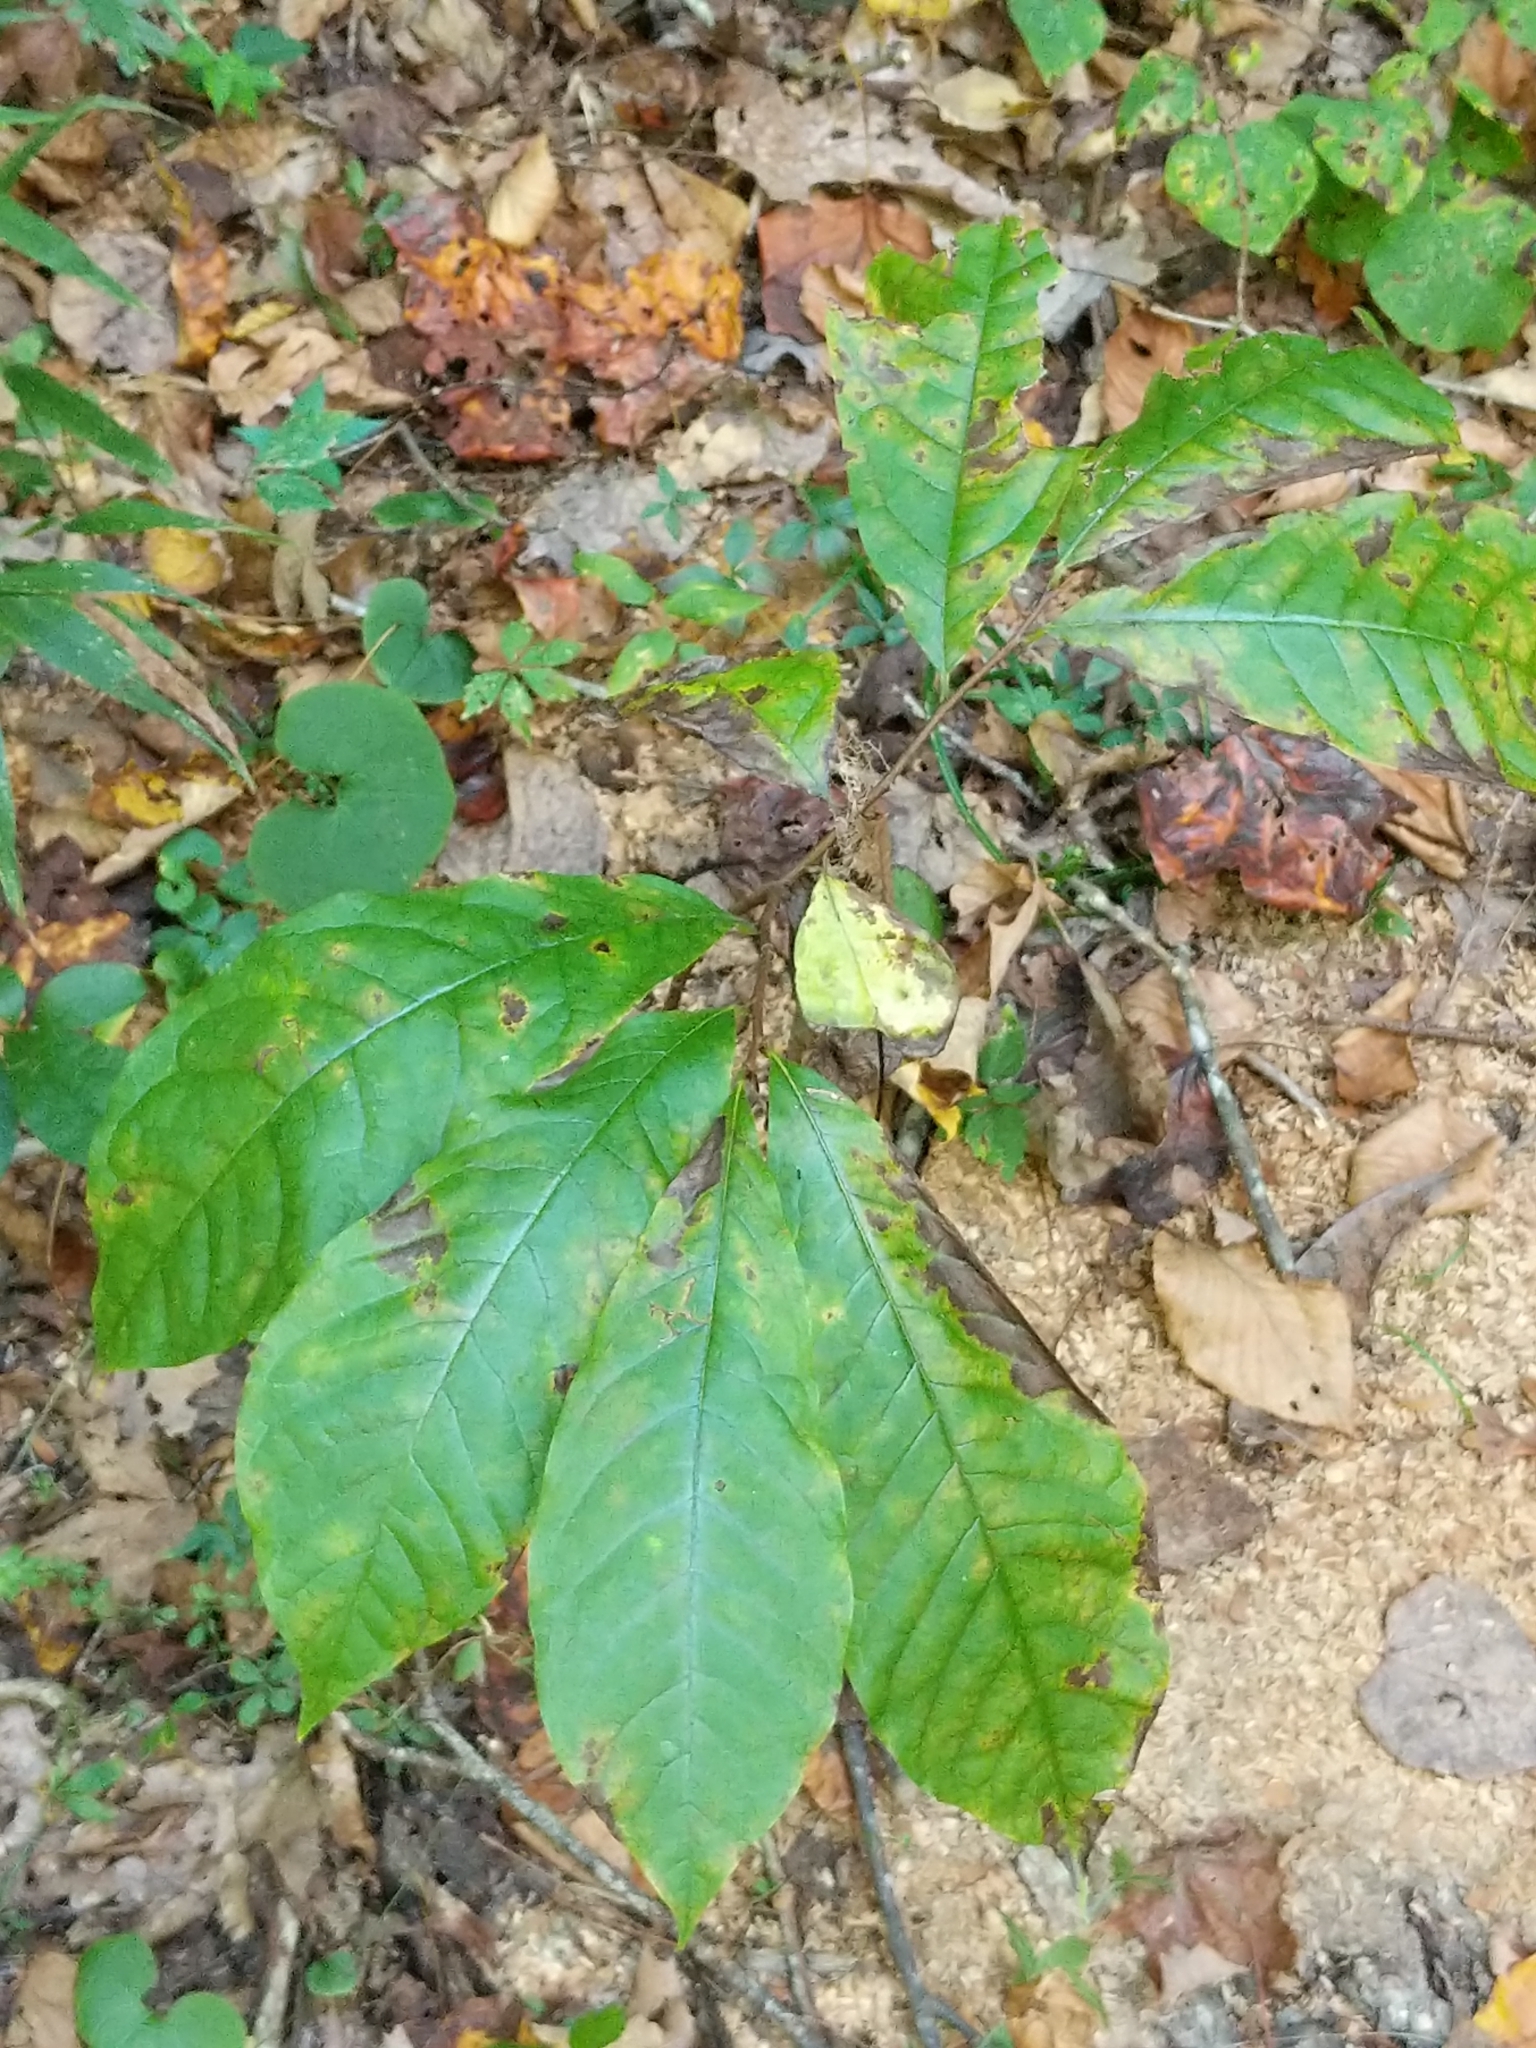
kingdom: Plantae
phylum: Tracheophyta
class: Magnoliopsida
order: Magnoliales
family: Annonaceae
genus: Asimina
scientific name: Asimina triloba
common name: Dog-banana
